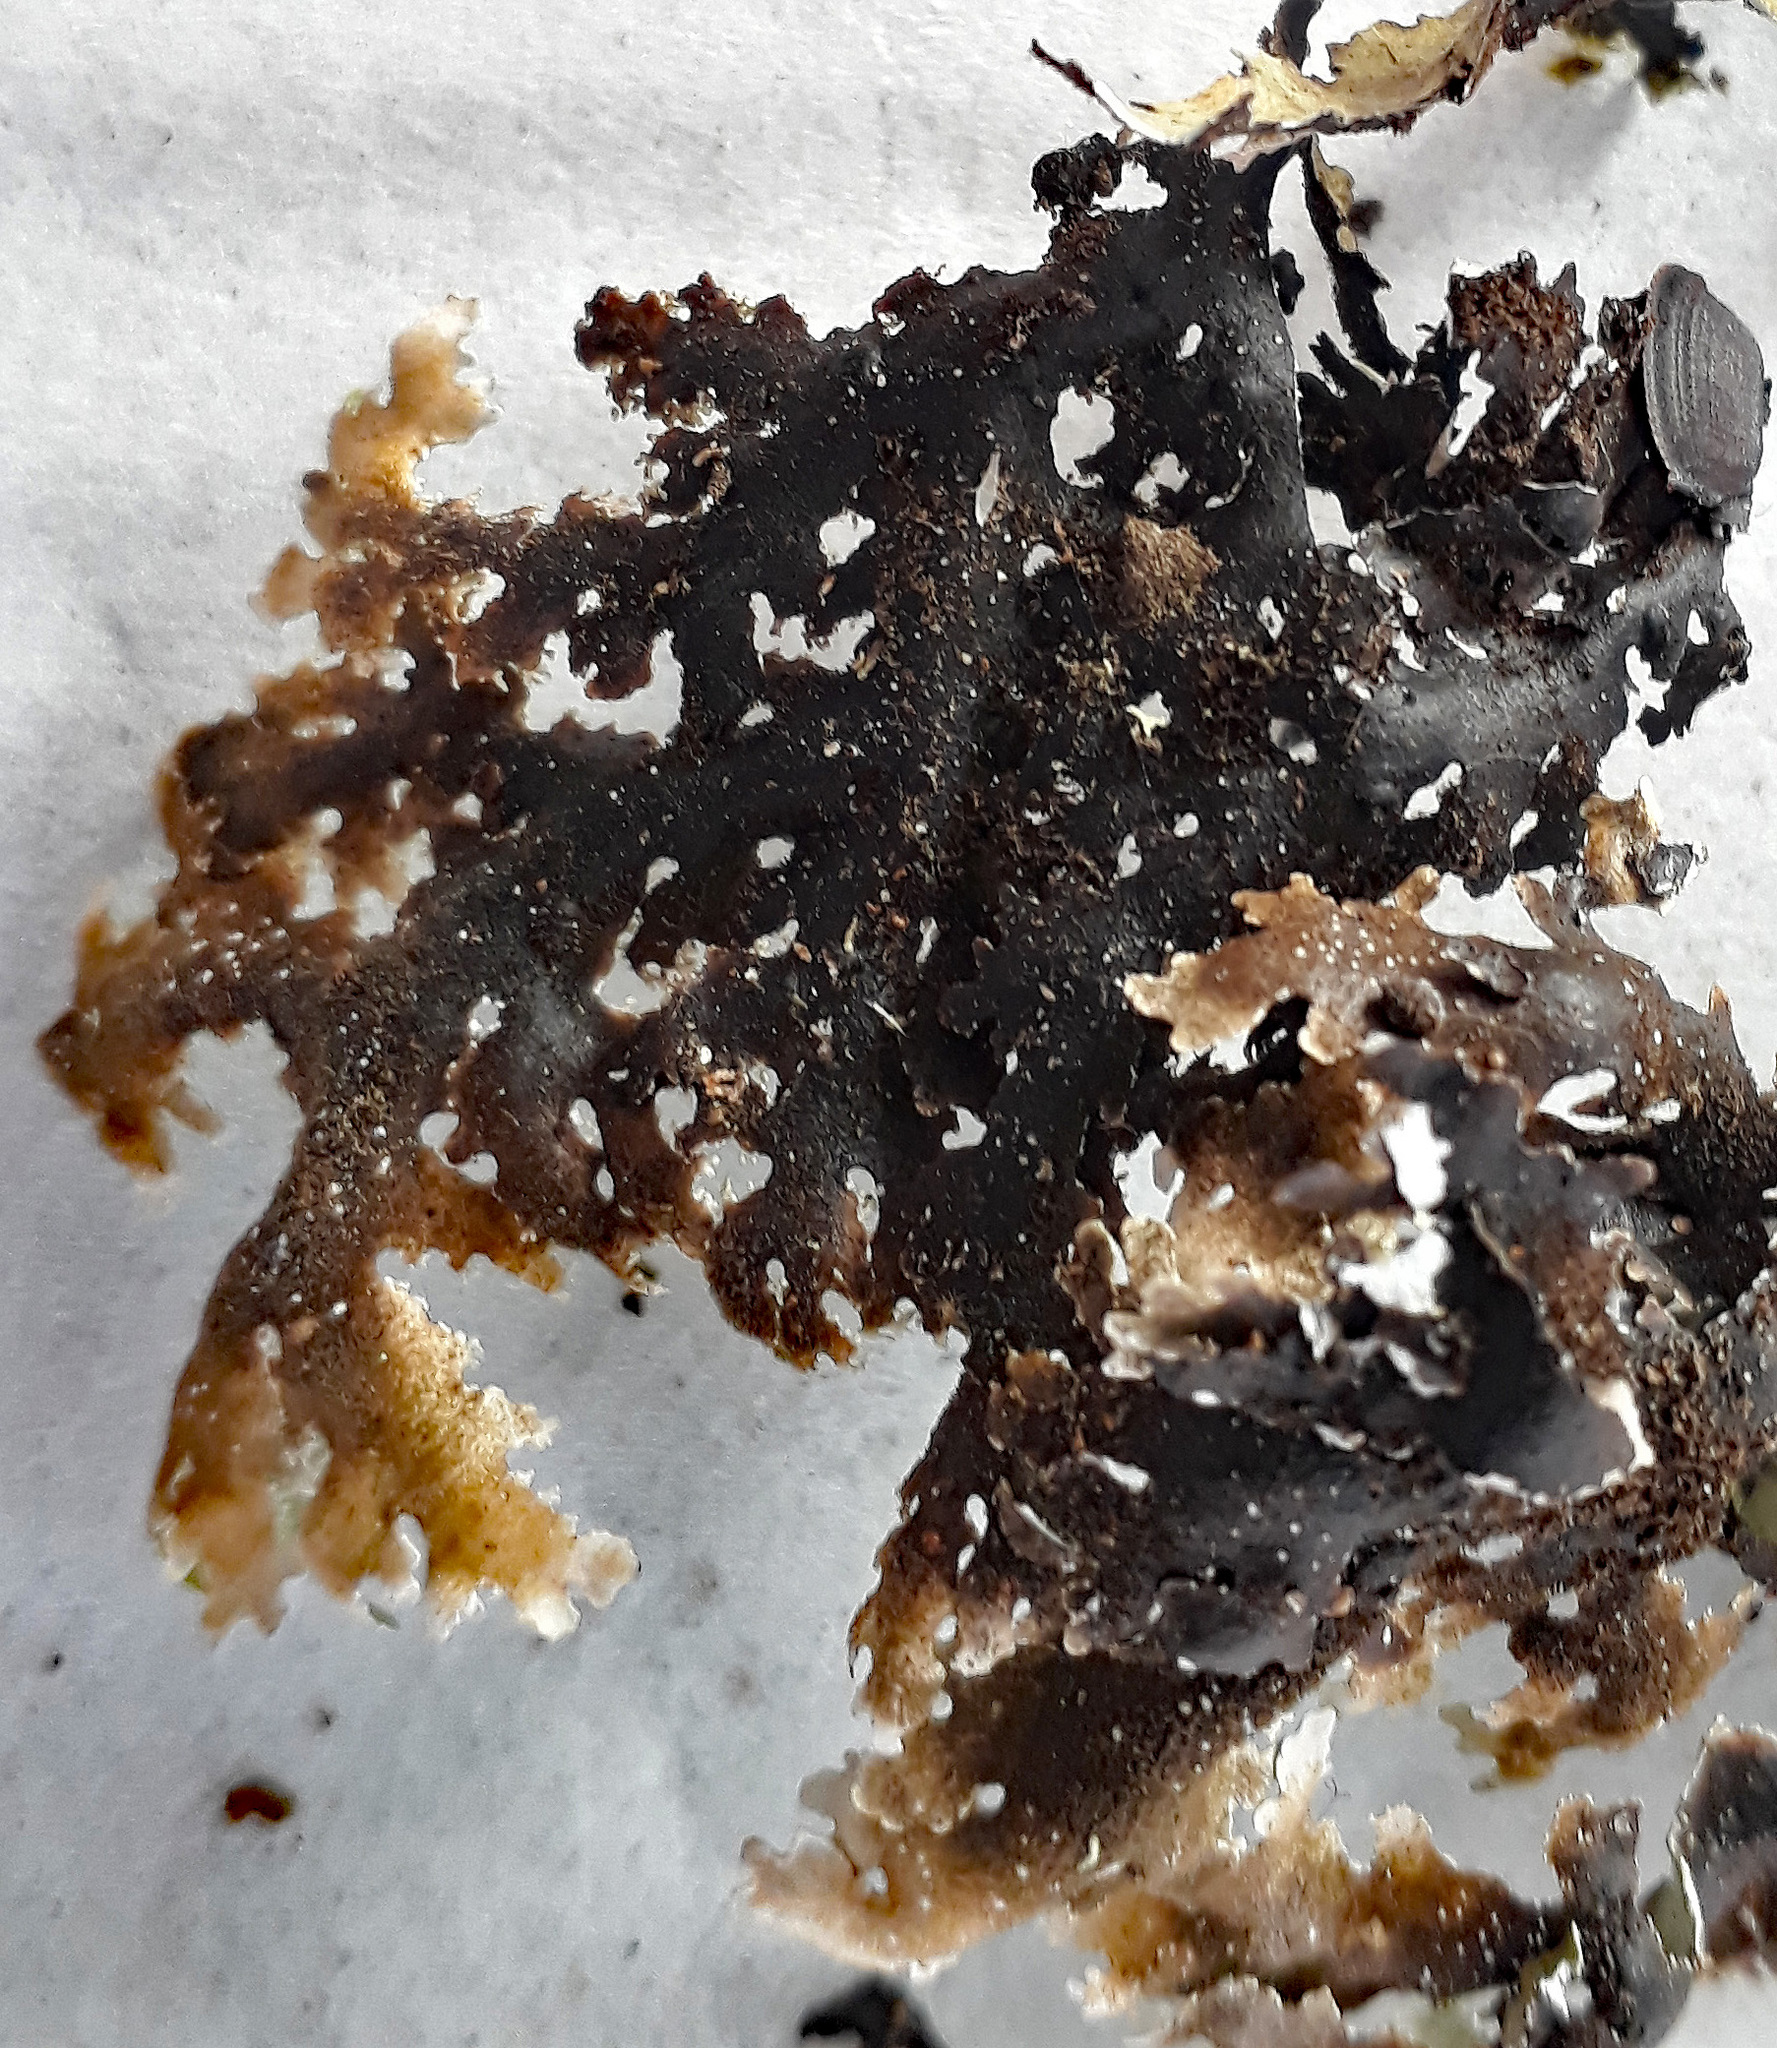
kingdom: Fungi
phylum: Ascomycota
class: Lecanoromycetes
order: Peltigerales
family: Lobariaceae
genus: Pseudocyphellaria
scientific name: Pseudocyphellaria glabra
